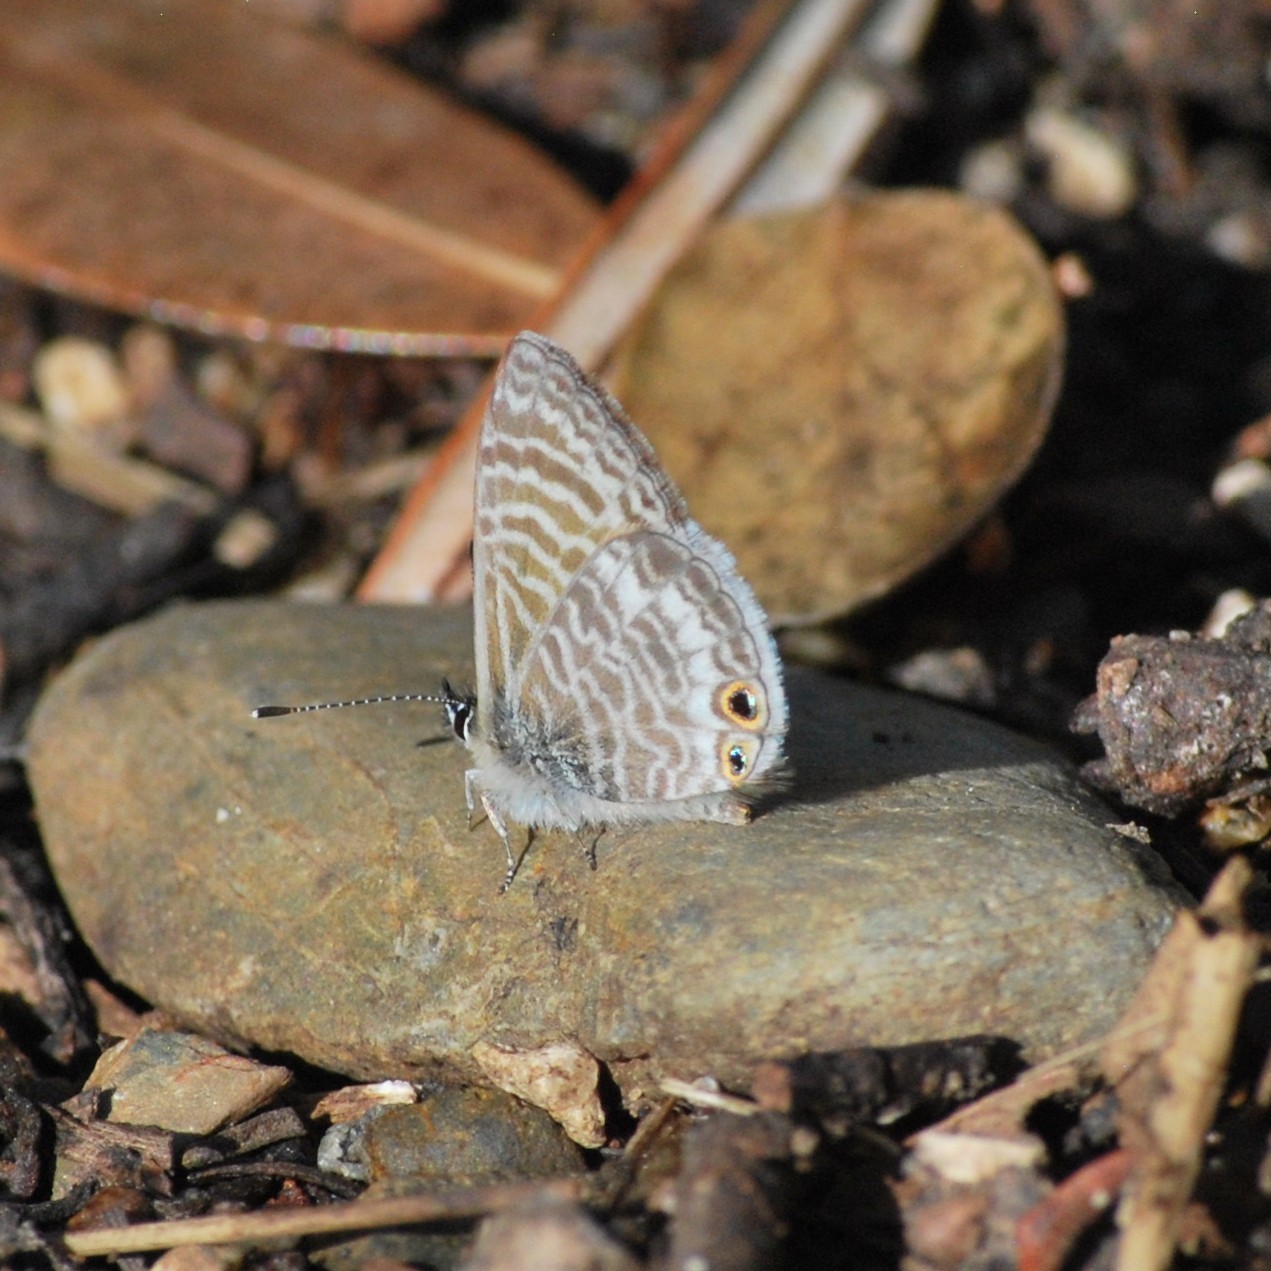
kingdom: Animalia
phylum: Arthropoda
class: Insecta
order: Lepidoptera
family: Lycaenidae
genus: Leptotes
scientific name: Leptotes marina
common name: Marine blue
